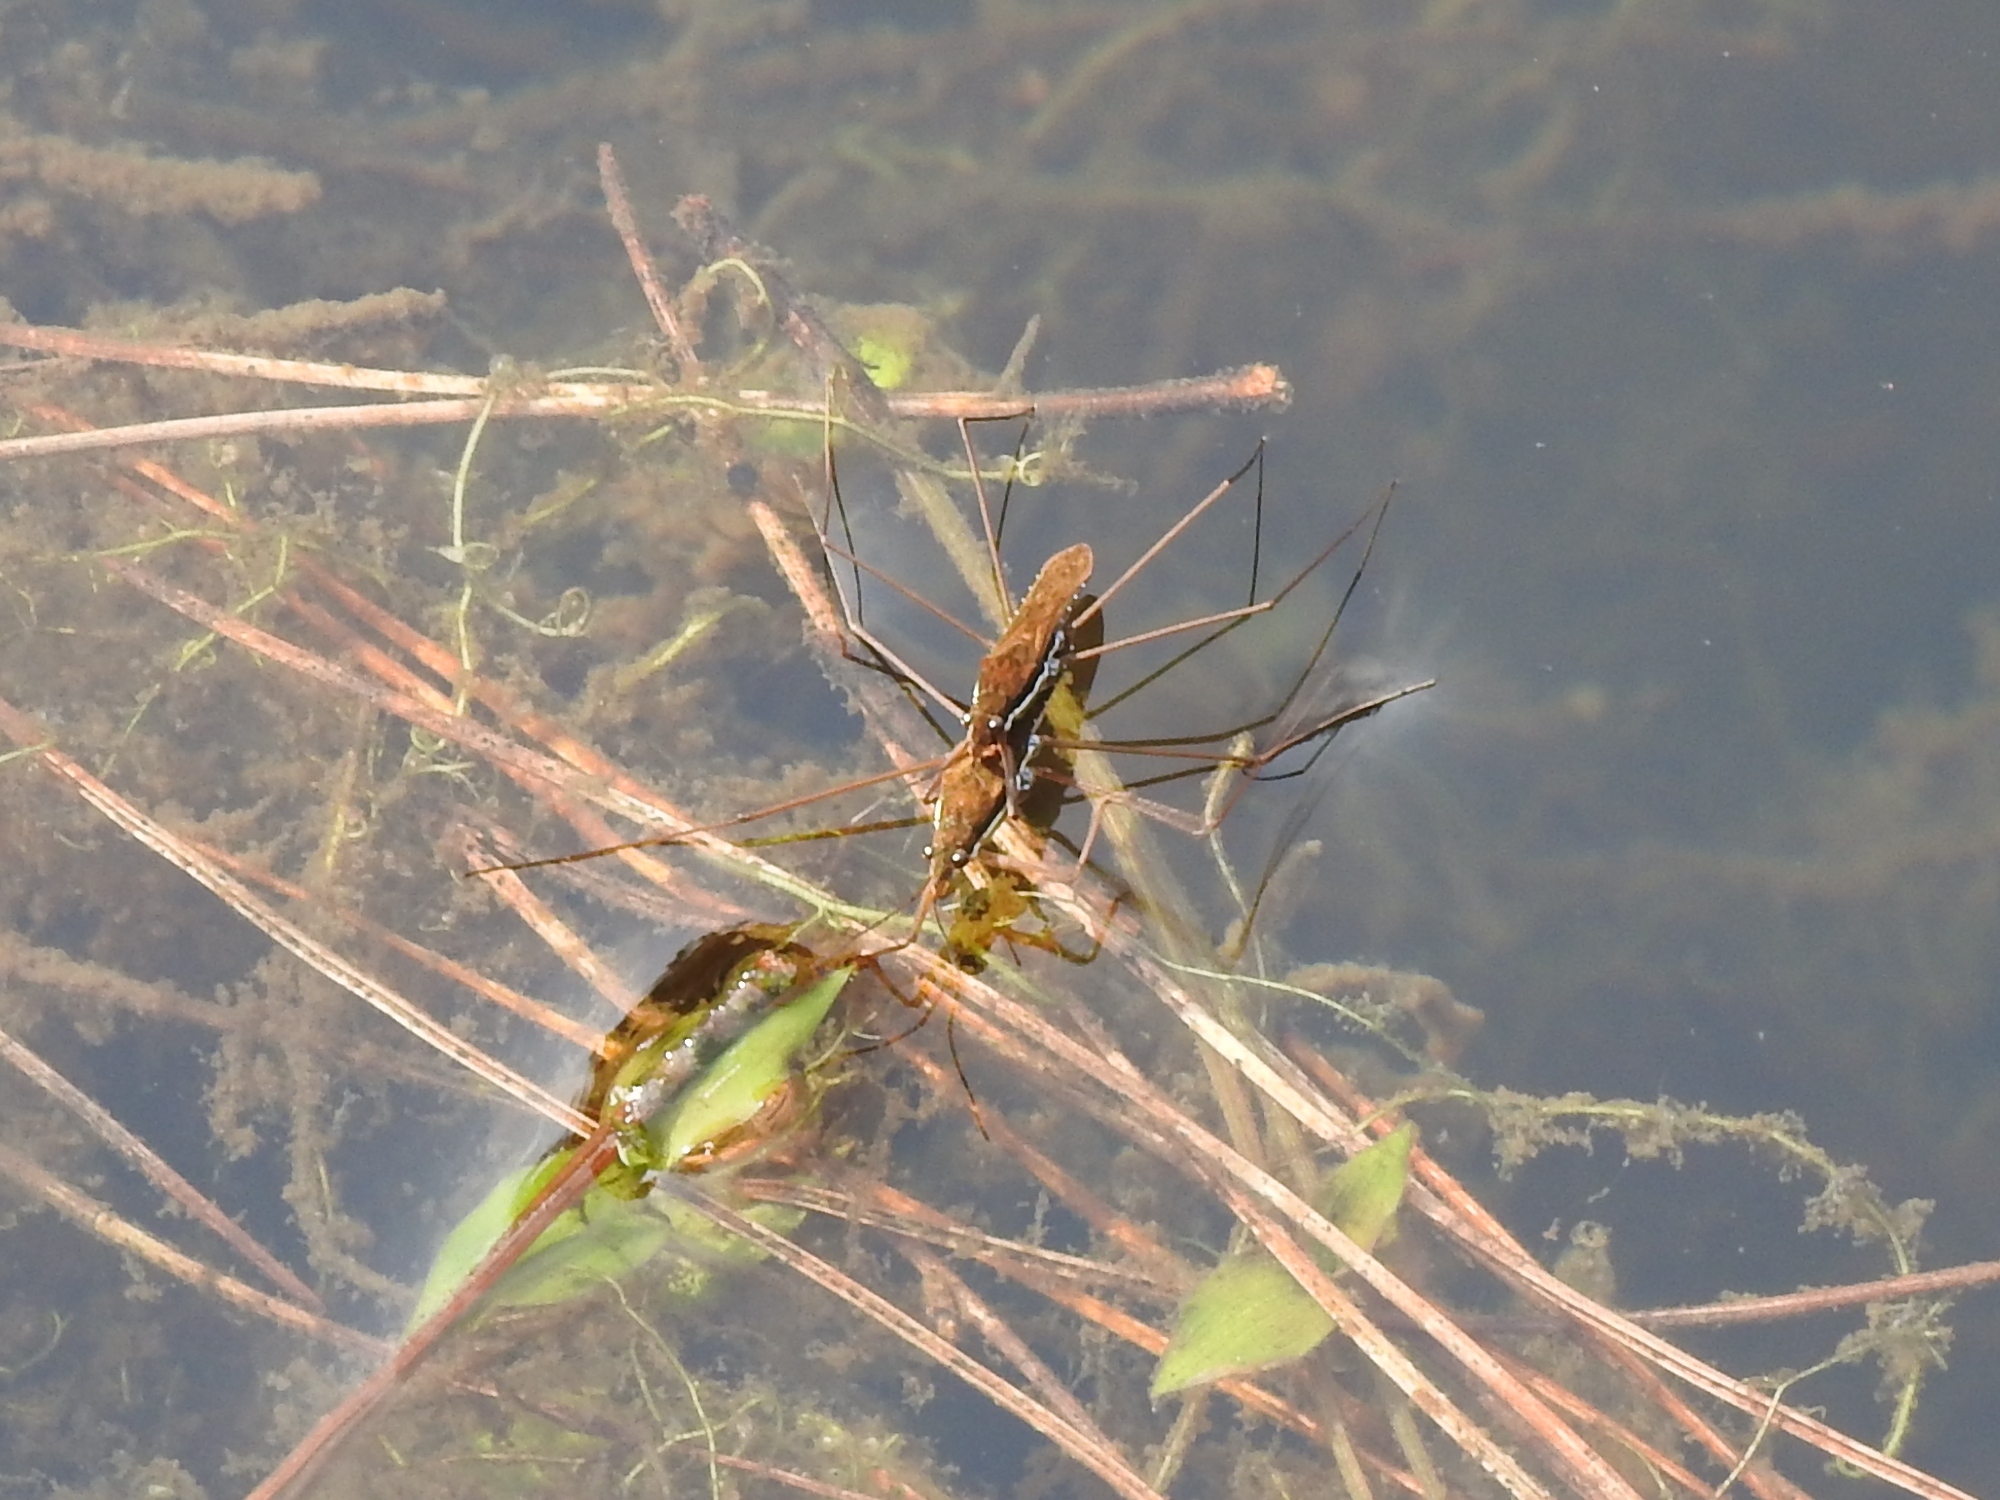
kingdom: Animalia
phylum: Arthropoda
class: Insecta
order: Hemiptera
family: Gerridae
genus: Gerris
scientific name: Gerris gracilicornis
